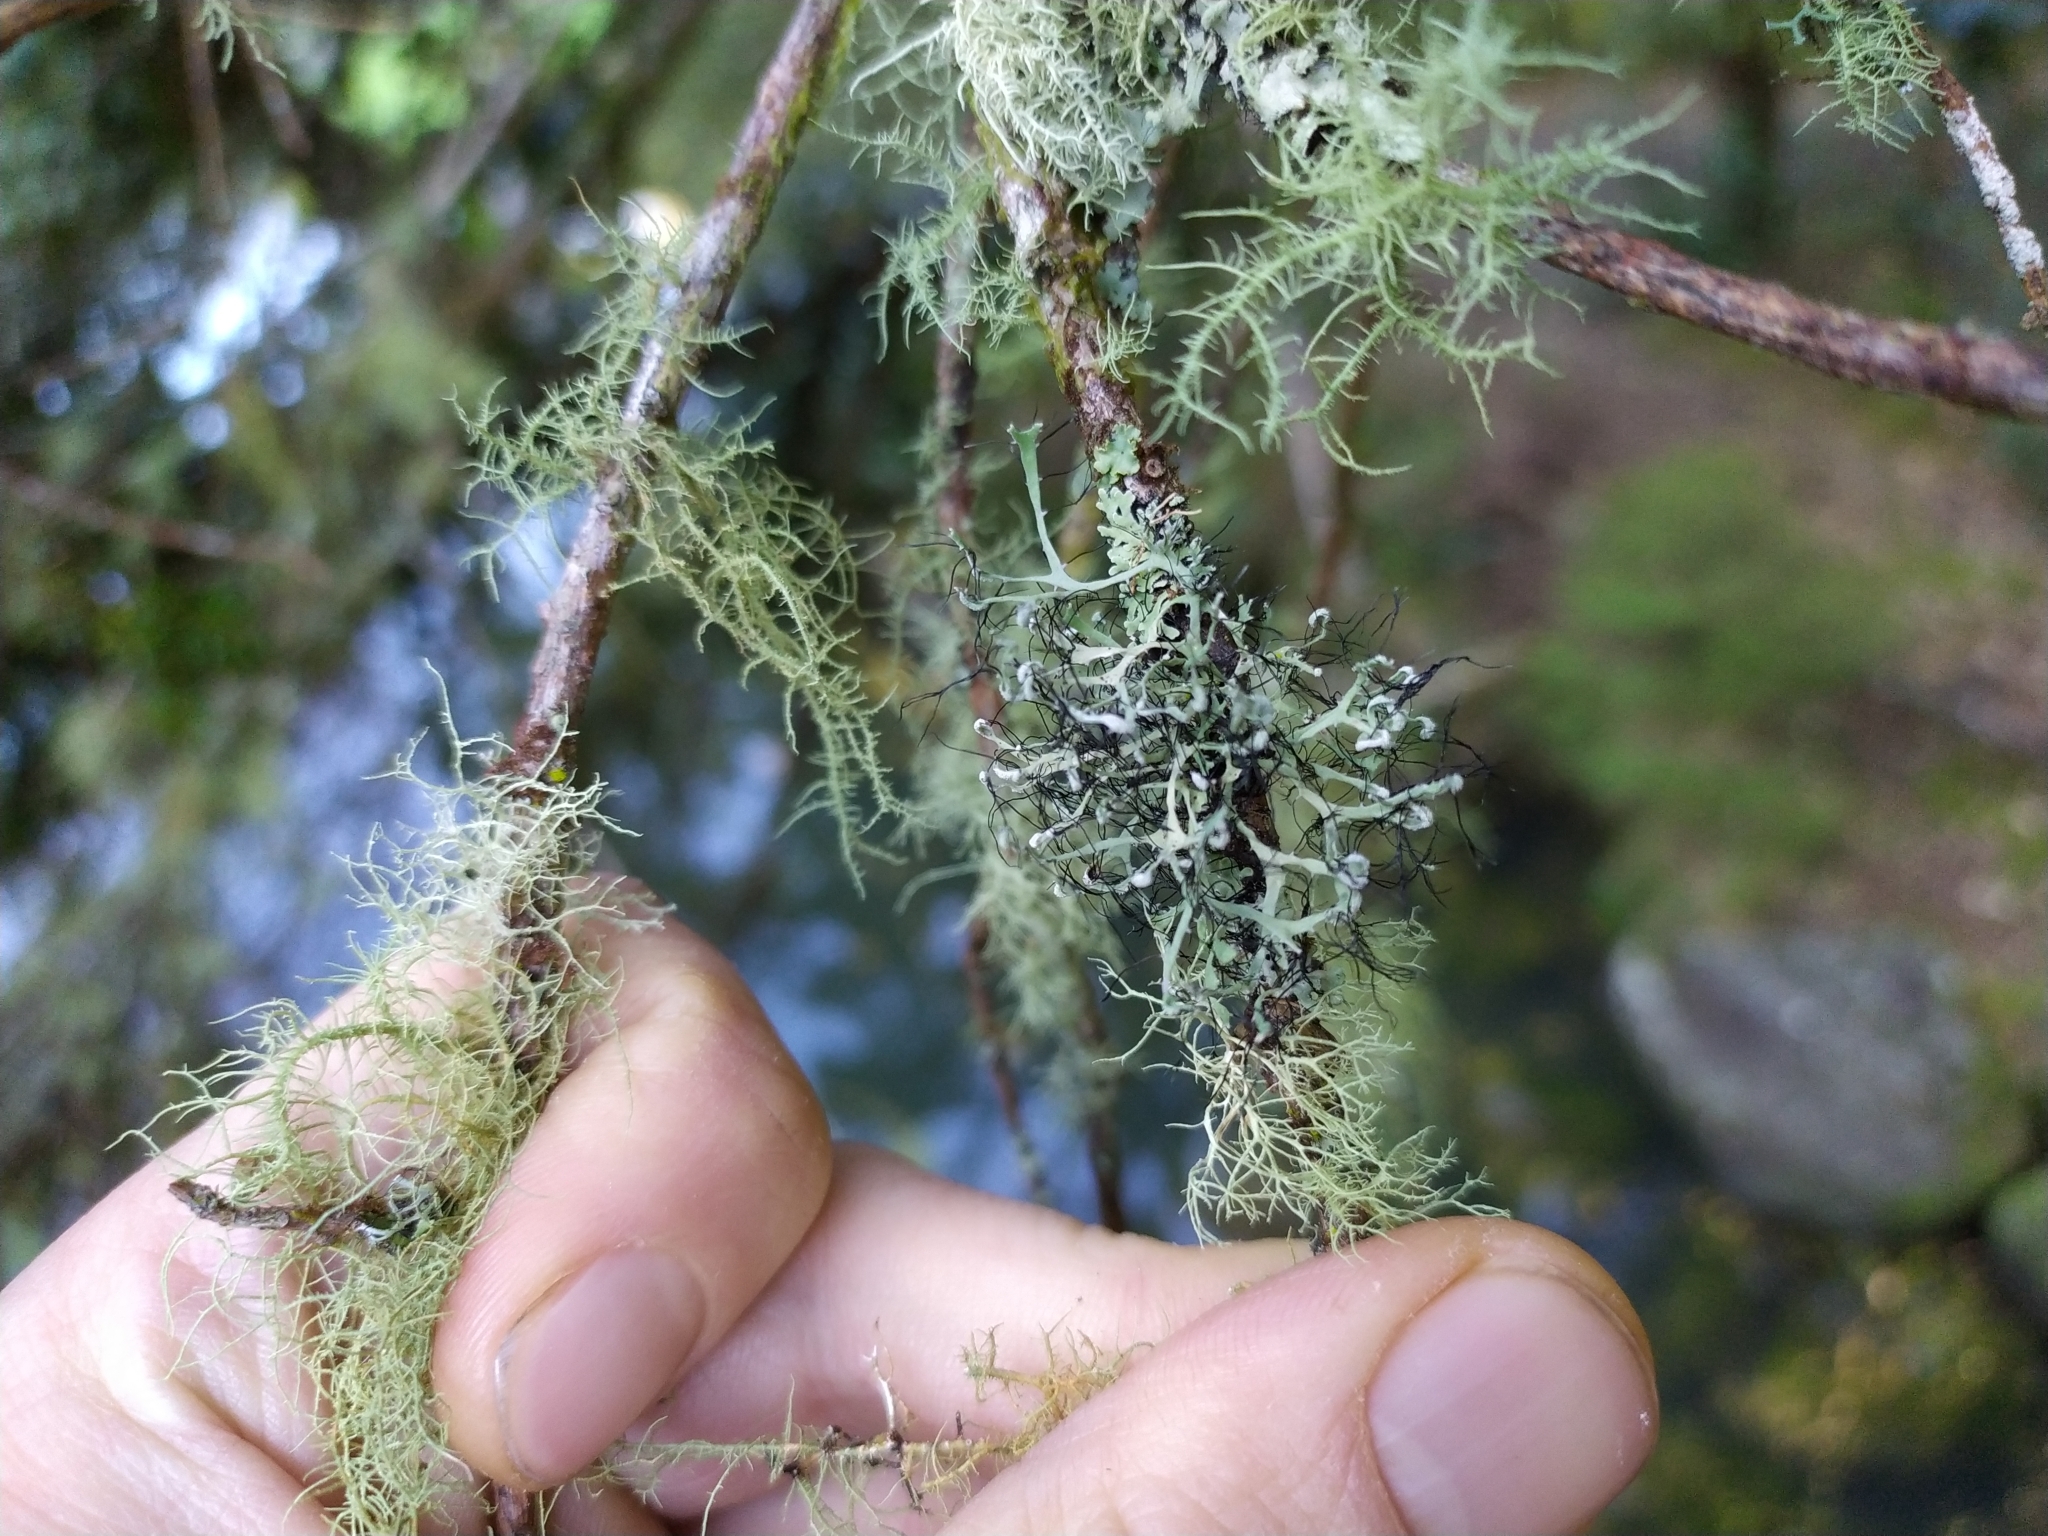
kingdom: Fungi
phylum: Ascomycota
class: Lecanoromycetes
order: Caliciales
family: Physciaceae
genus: Leucodermia
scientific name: Leucodermia leucomelos
